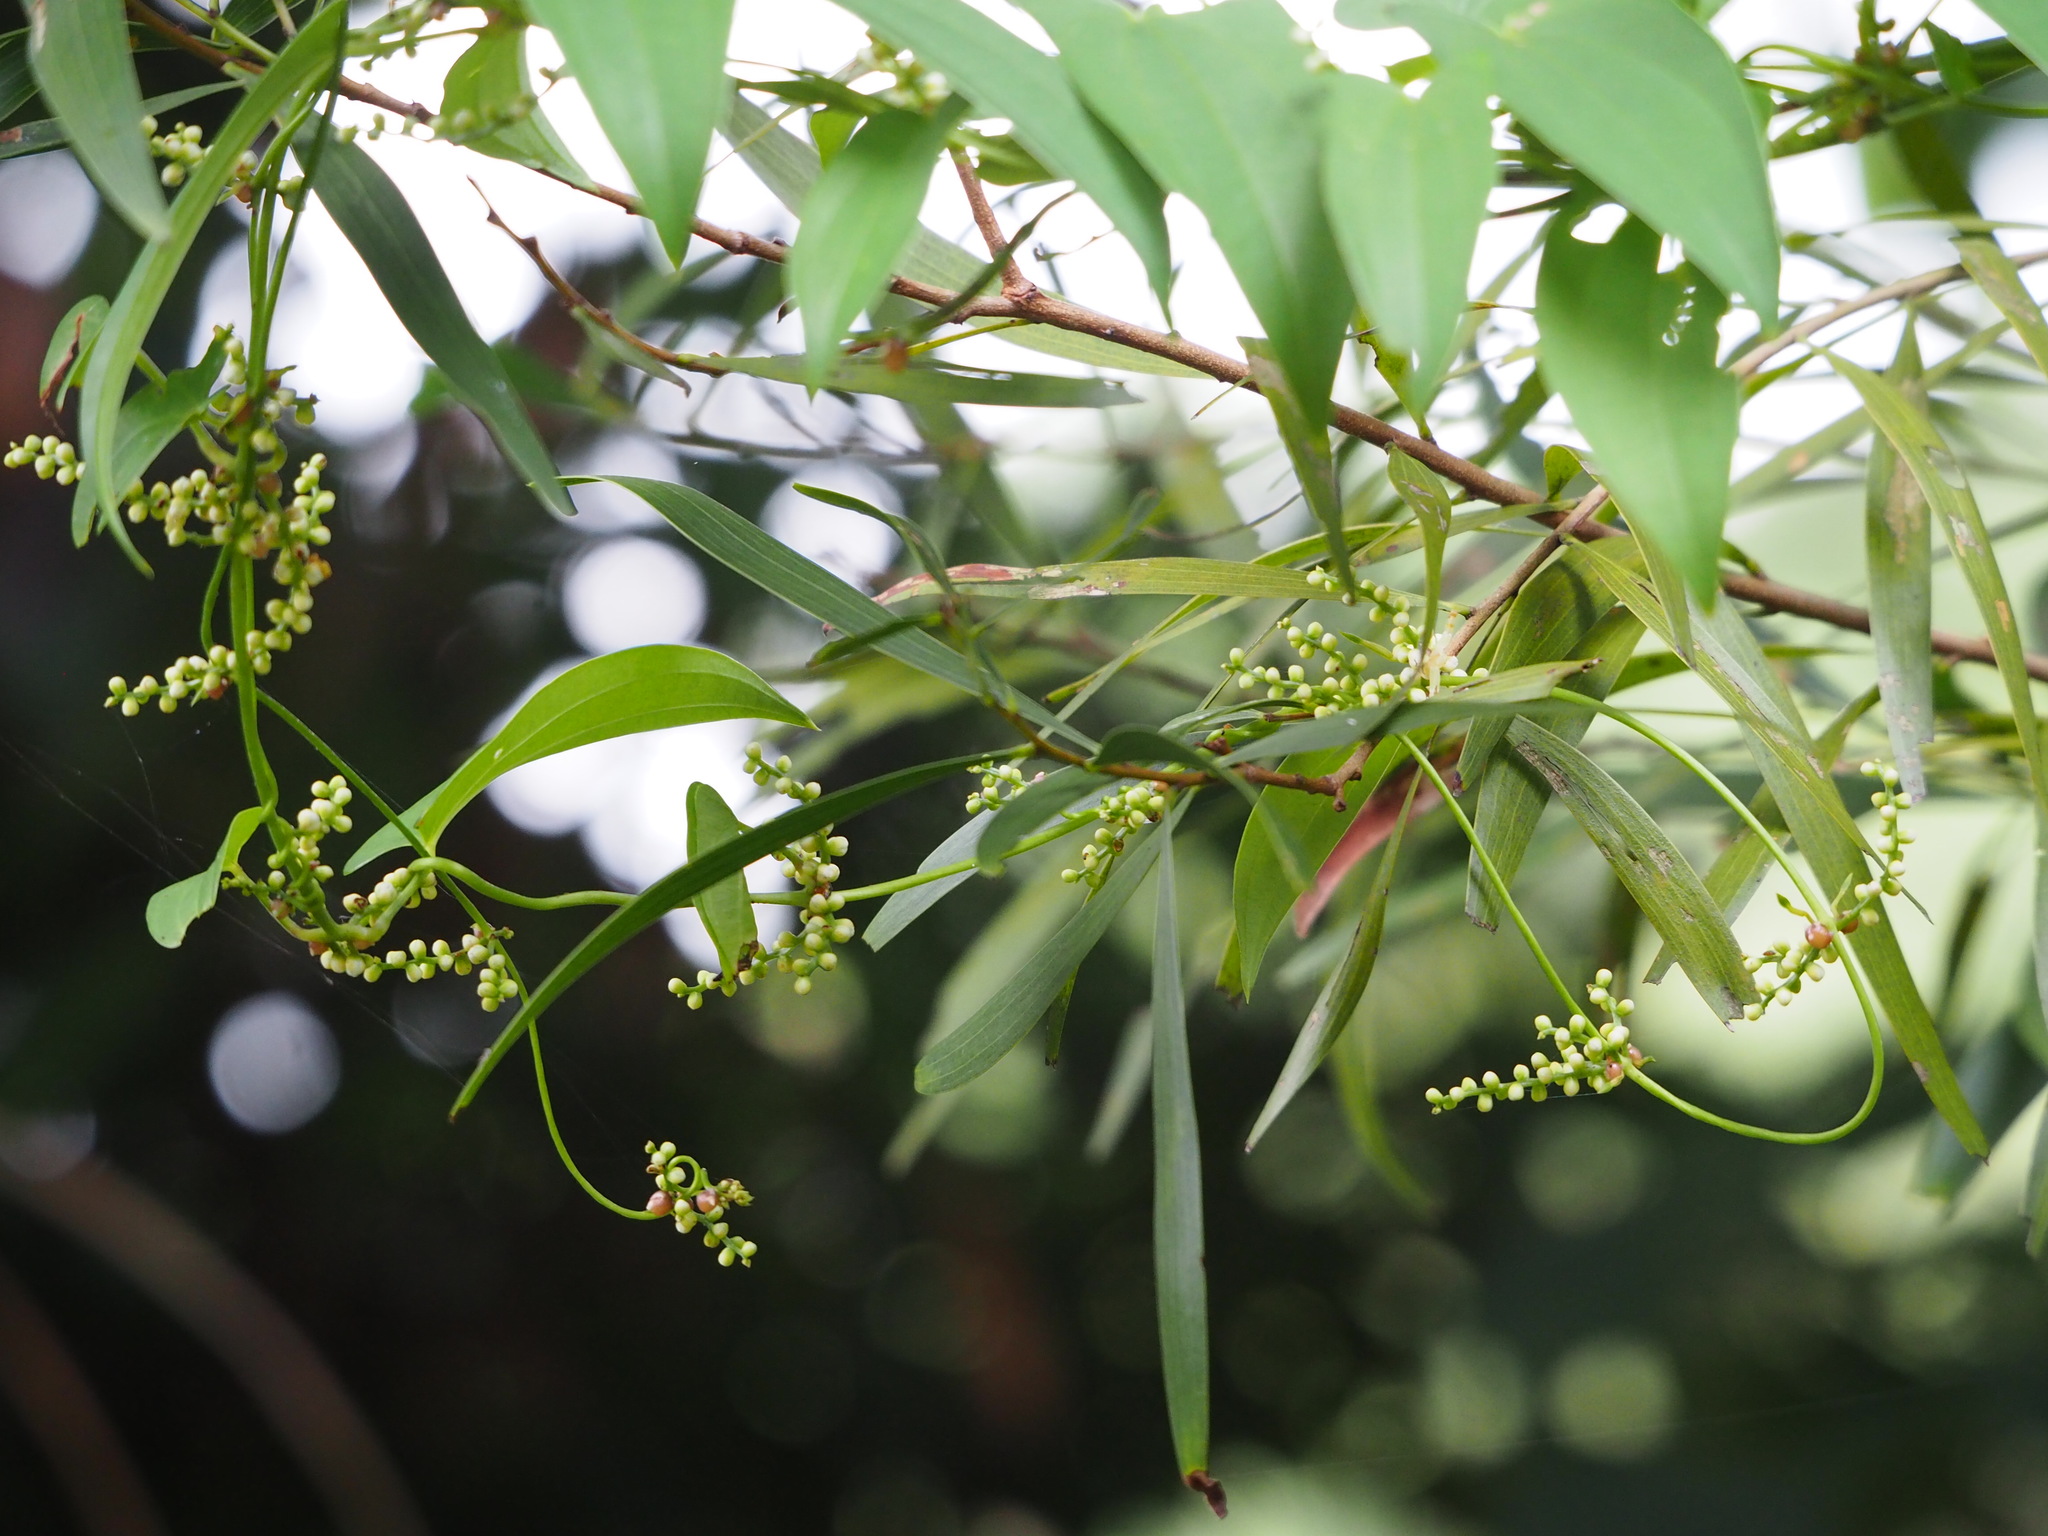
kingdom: Plantae
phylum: Tracheophyta
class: Liliopsida
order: Dioscoreales
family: Dioscoreaceae
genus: Dioscorea
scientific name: Dioscorea japonica
